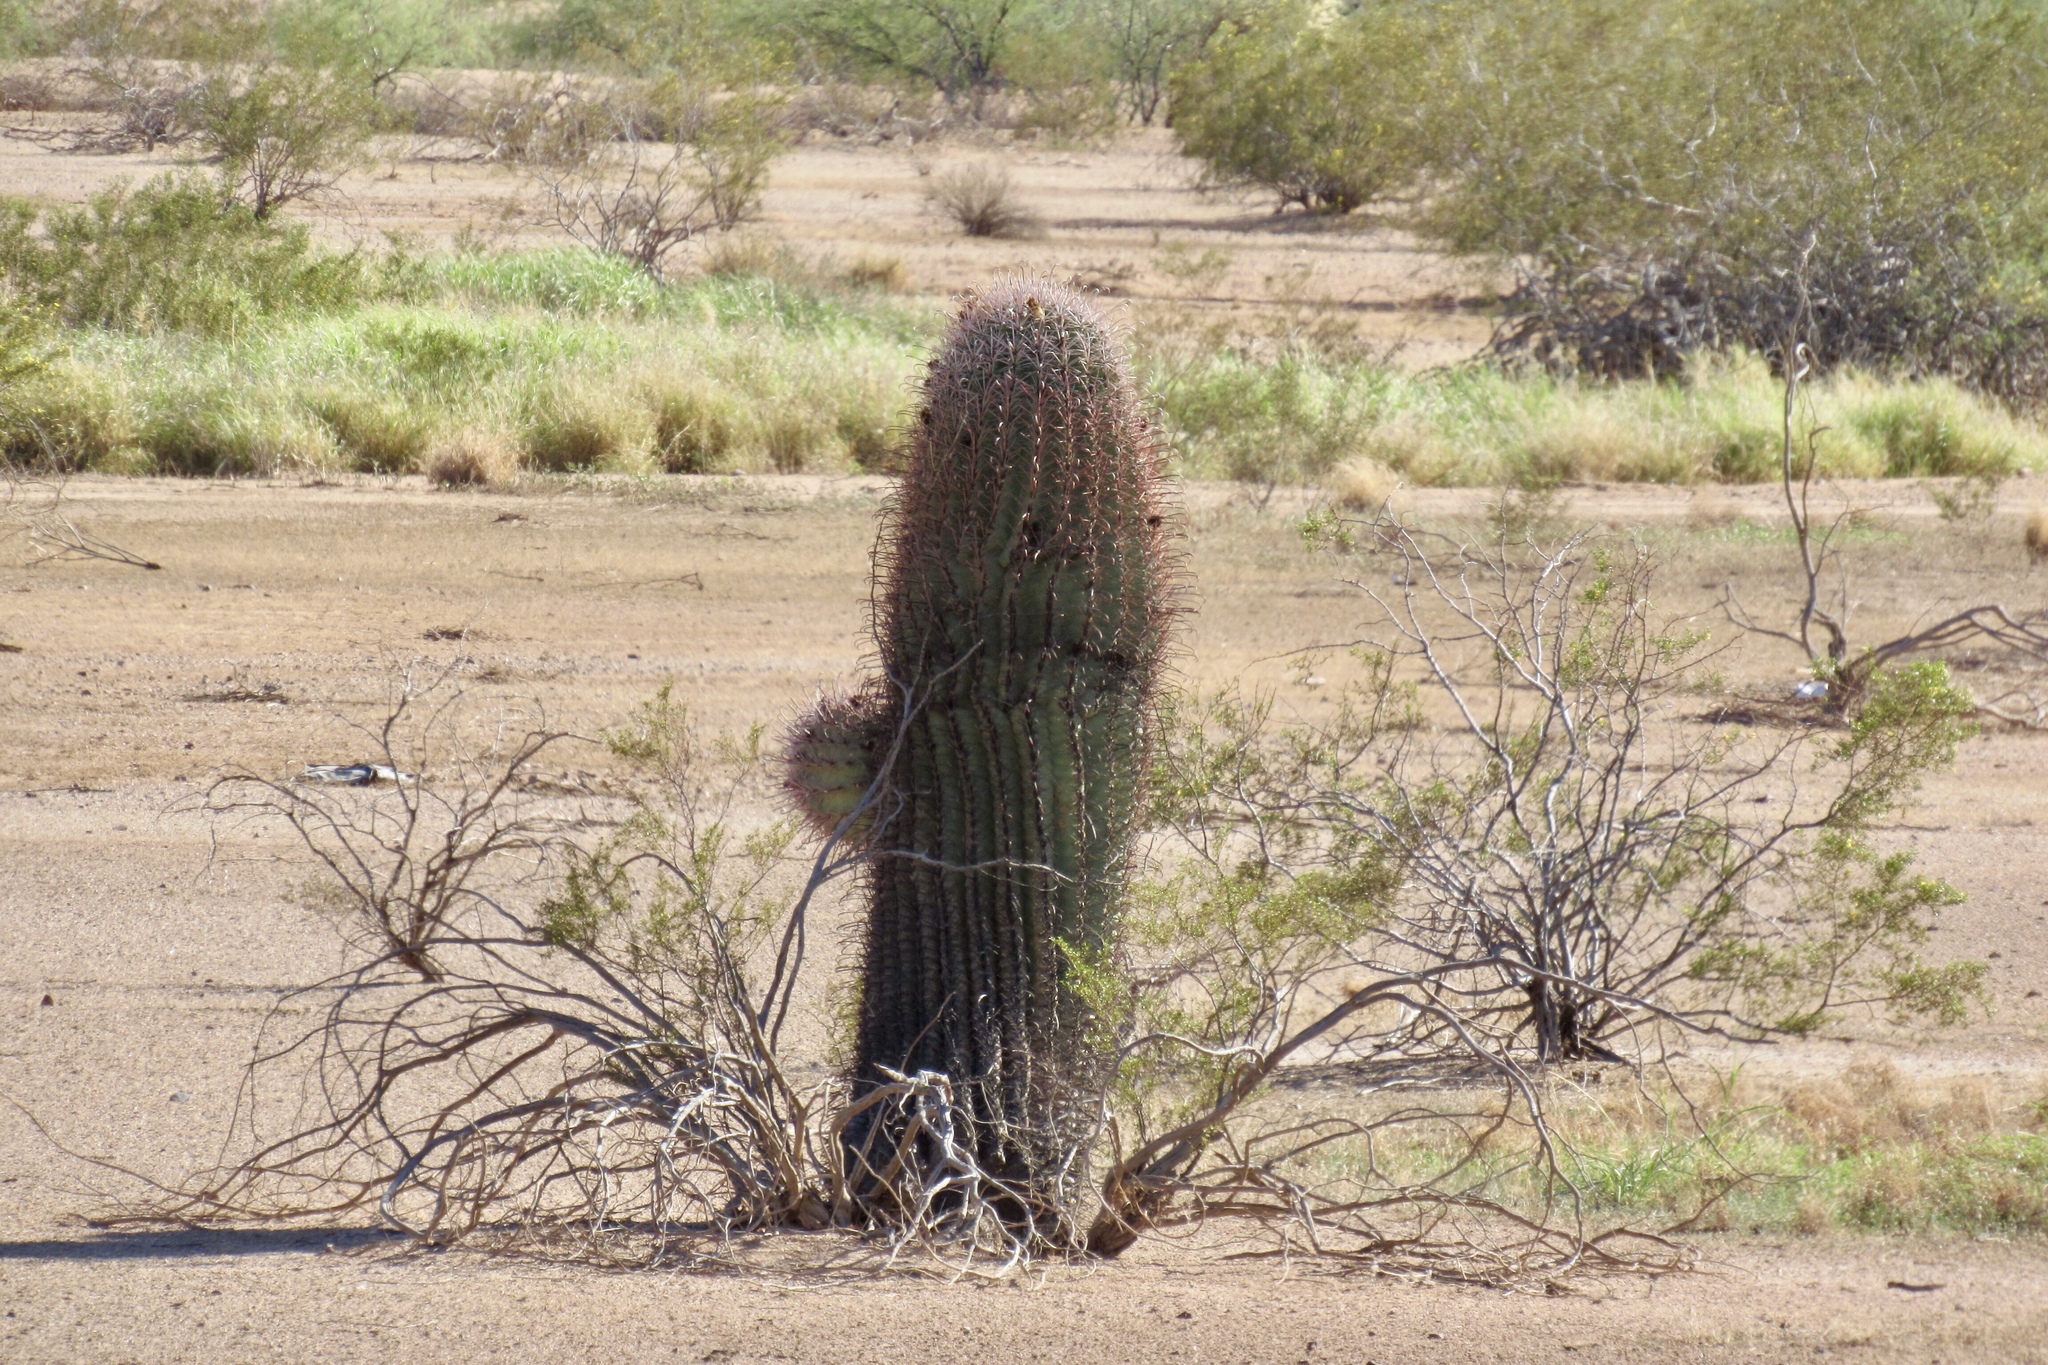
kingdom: Plantae
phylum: Tracheophyta
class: Magnoliopsida
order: Caryophyllales
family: Cactaceae
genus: Ferocactus
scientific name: Ferocactus cylindraceus
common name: California barrel cactus
